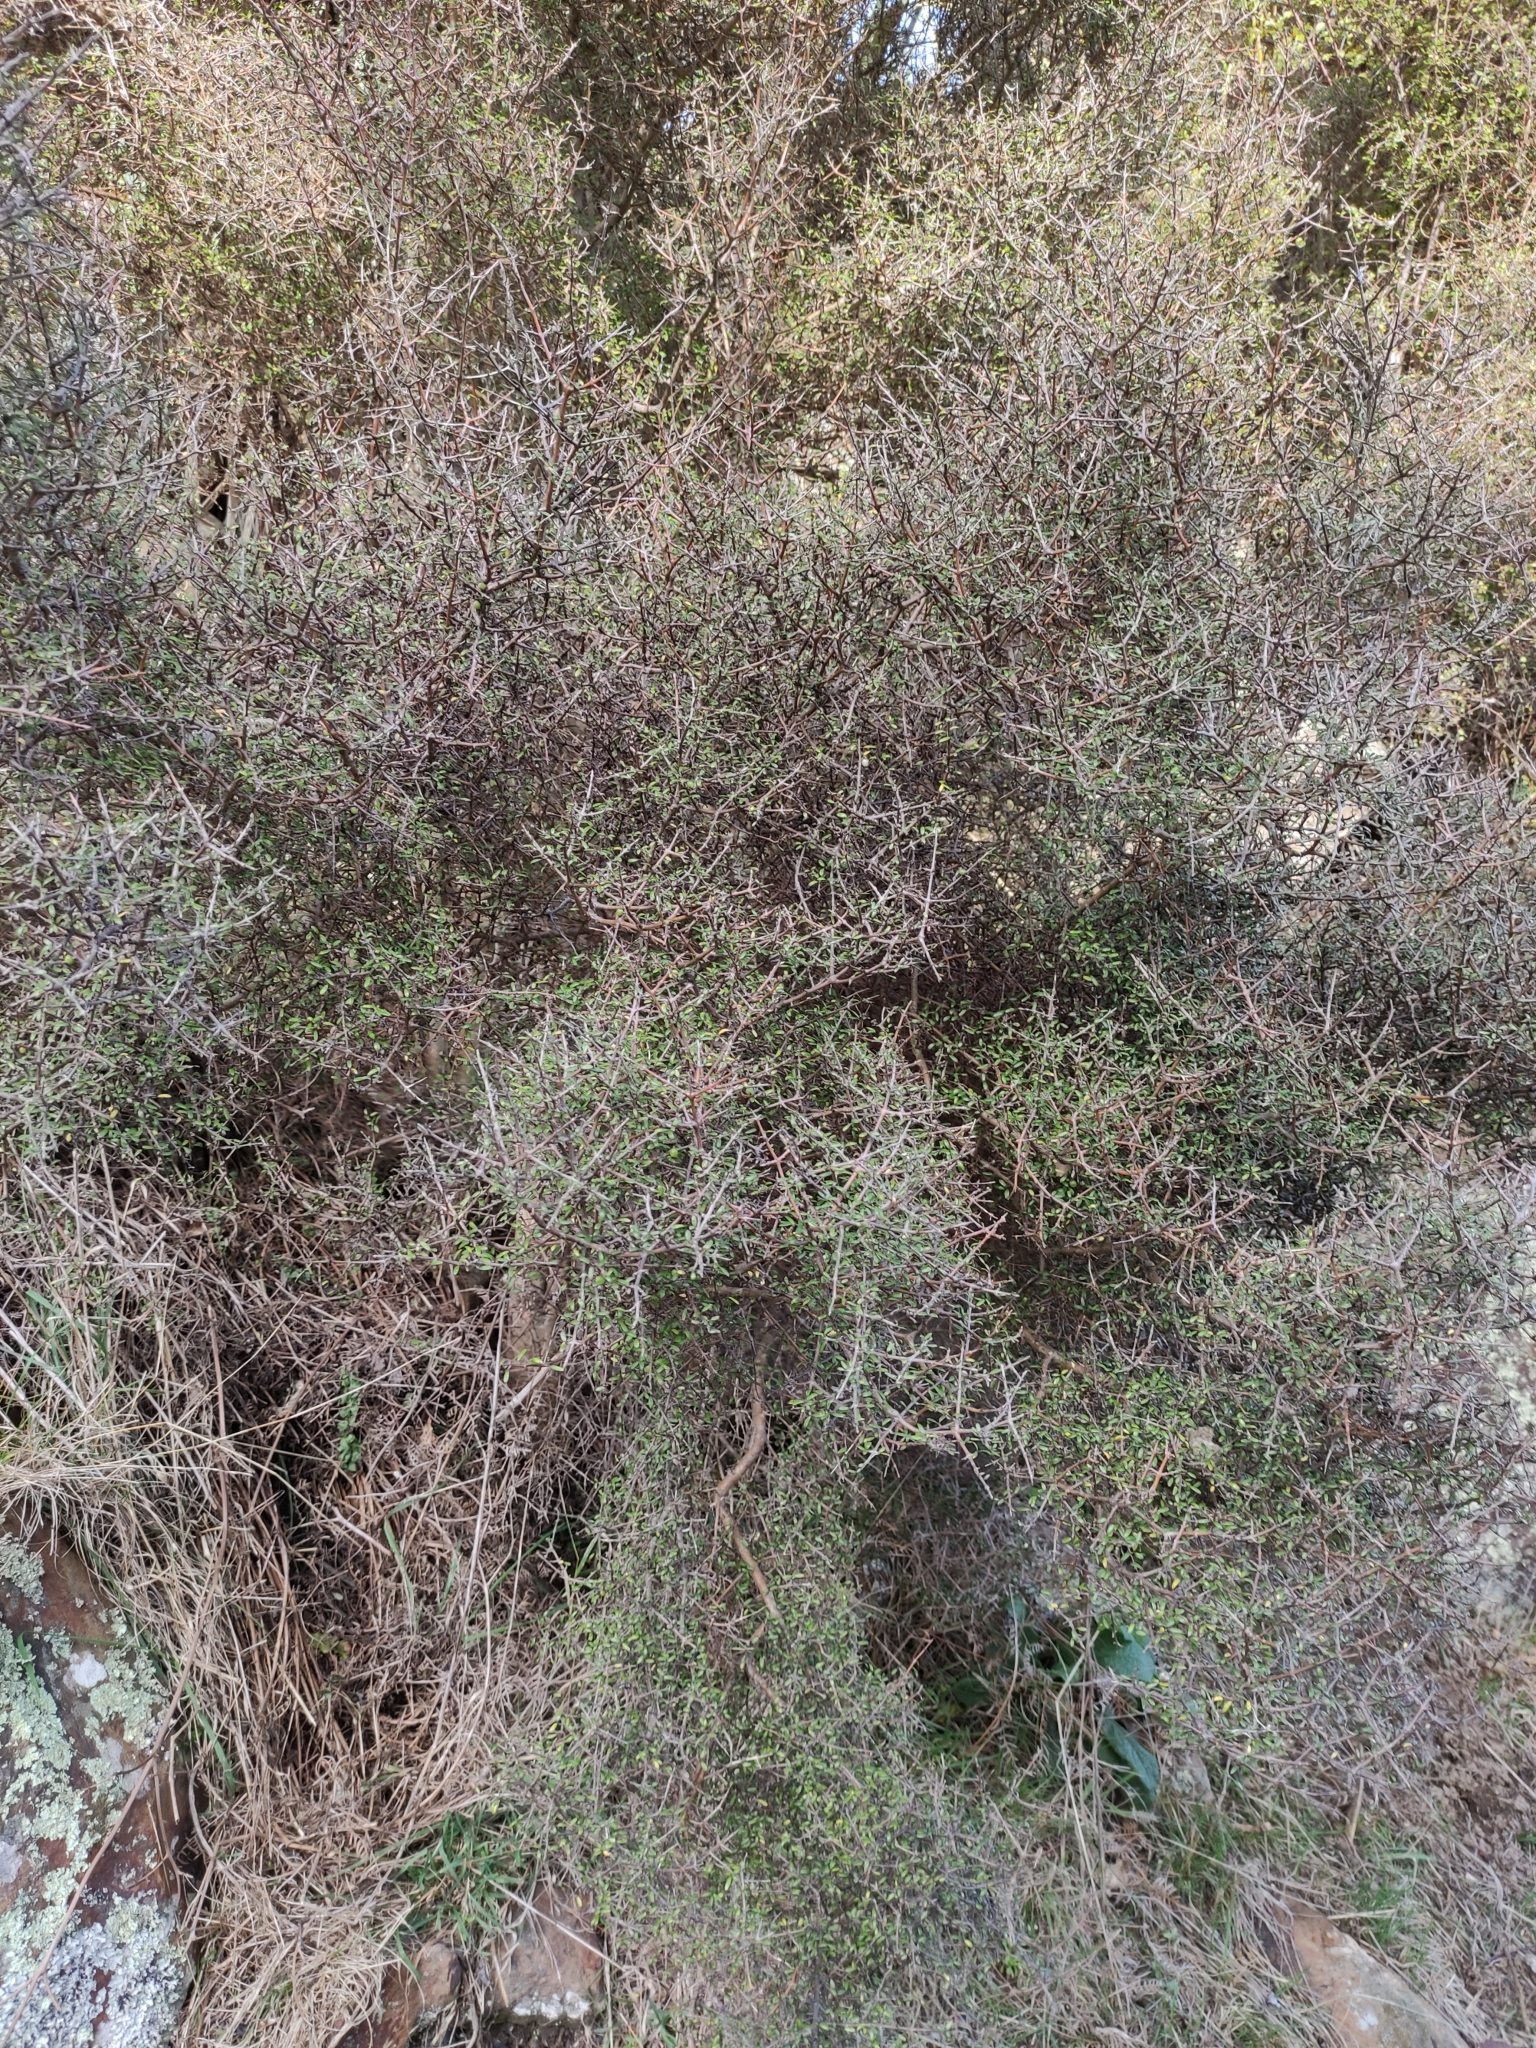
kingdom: Plantae
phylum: Tracheophyta
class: Magnoliopsida
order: Gentianales
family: Rubiaceae
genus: Coprosma
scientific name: Coprosma propinqua
